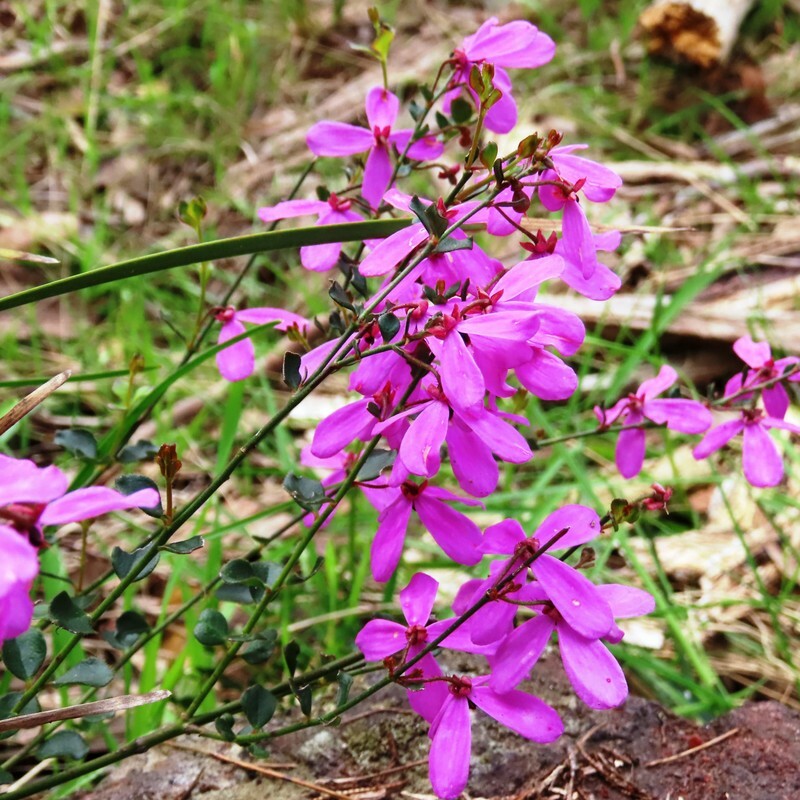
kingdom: Plantae
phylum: Tracheophyta
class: Magnoliopsida
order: Oxalidales
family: Elaeocarpaceae
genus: Tetratheca
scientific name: Tetratheca ciliata
